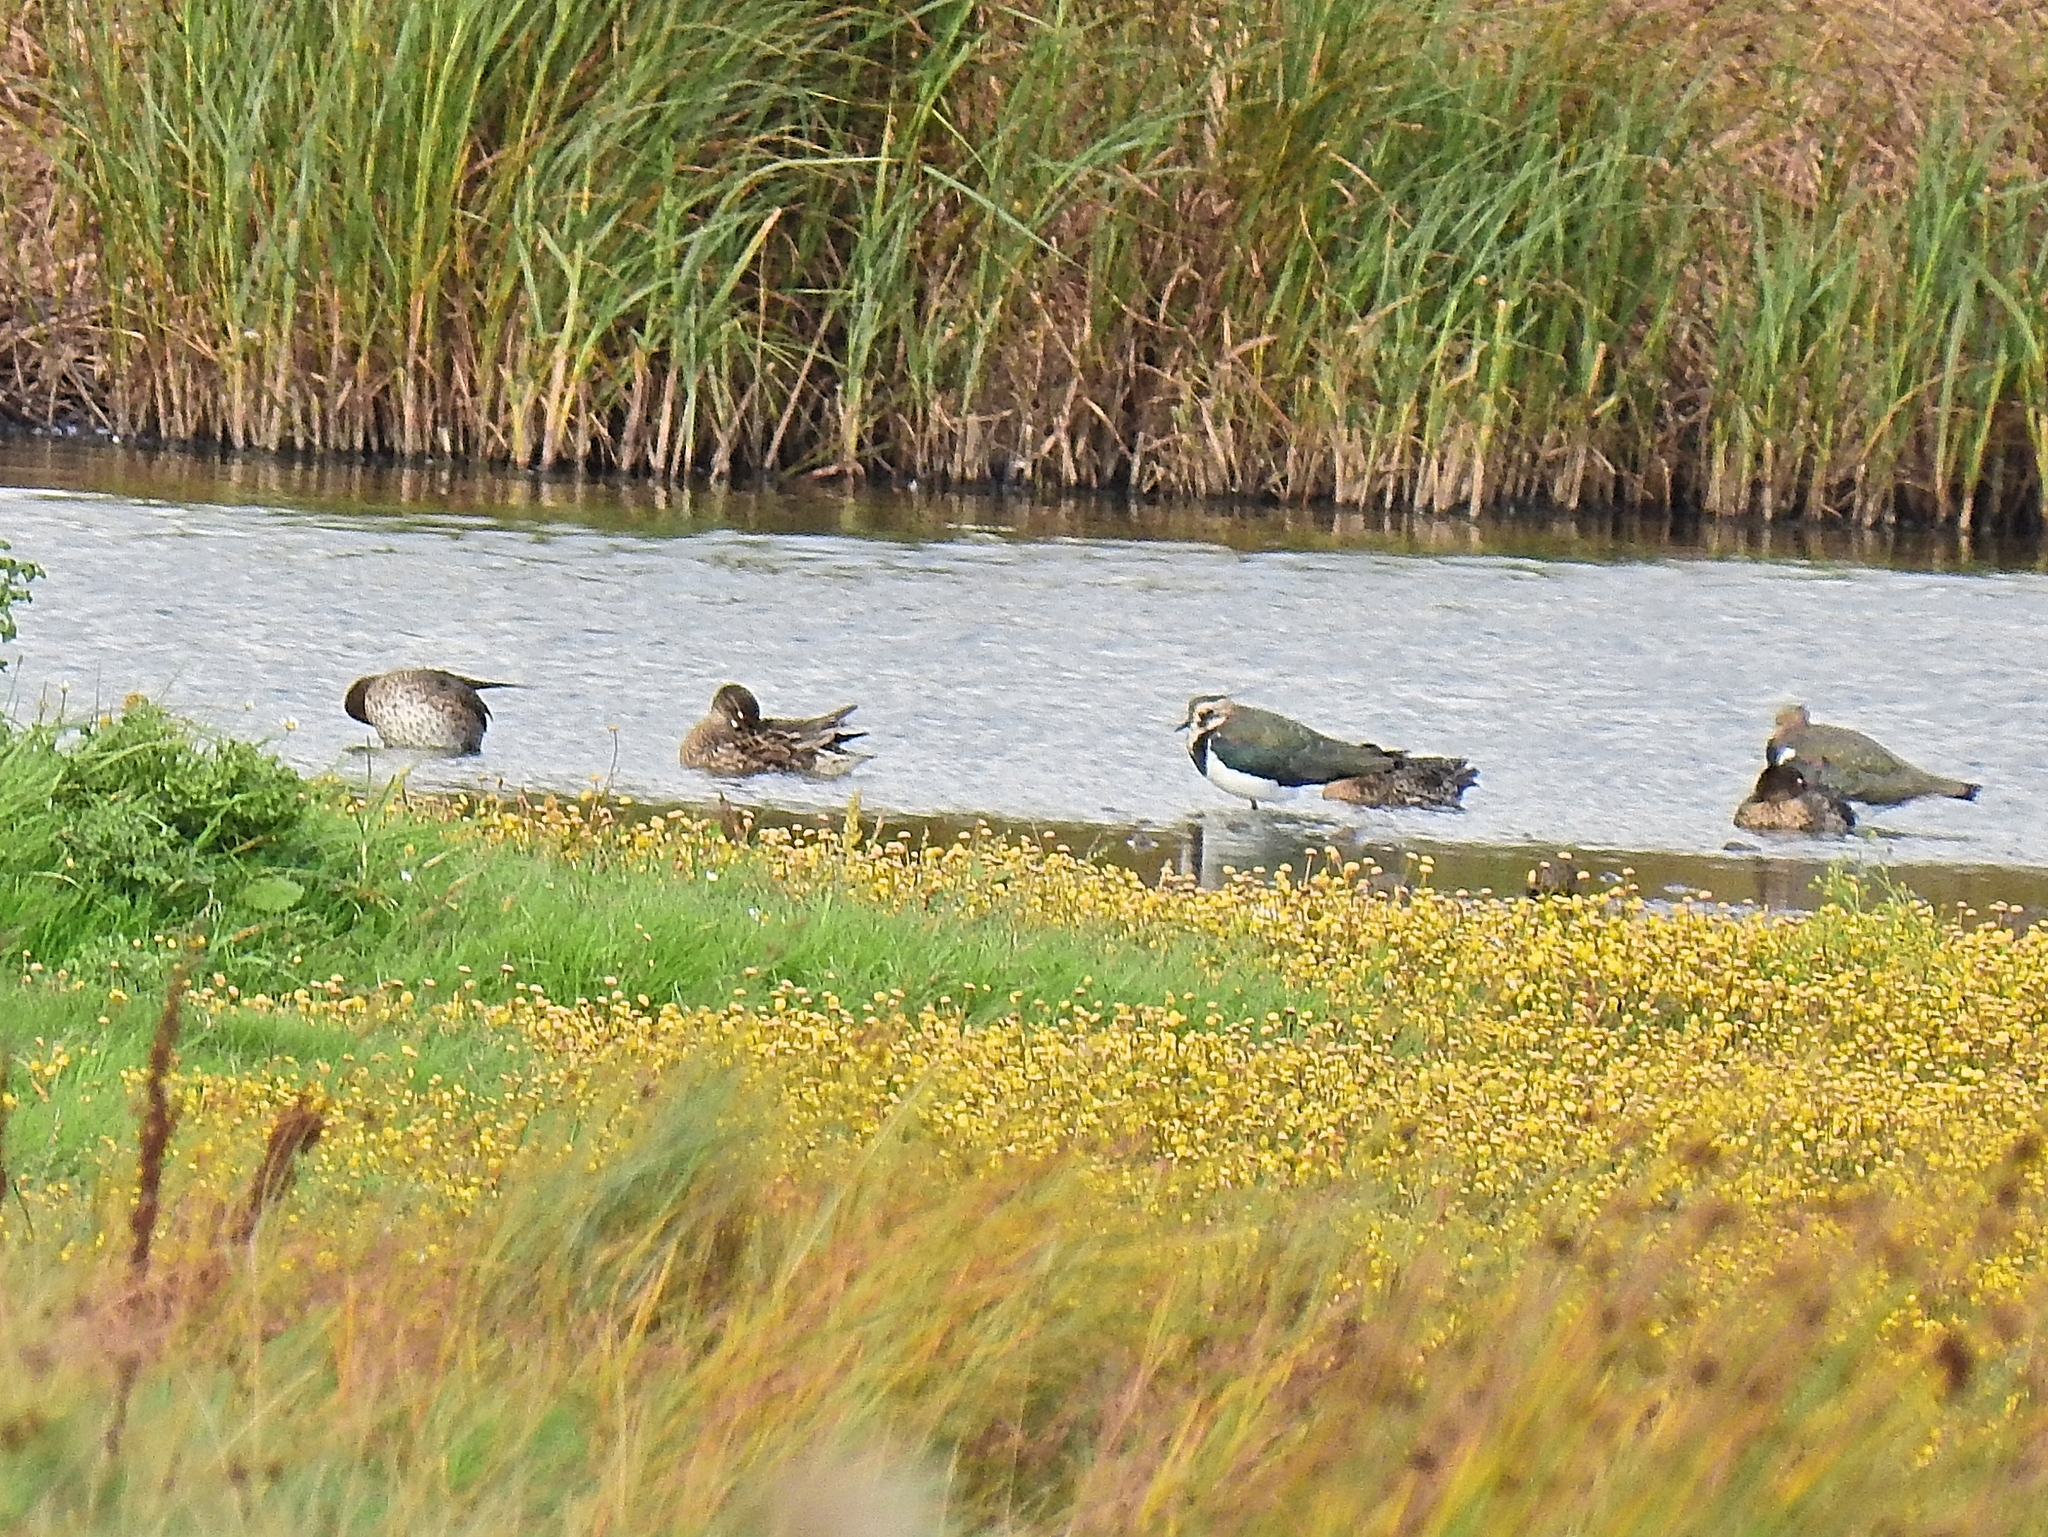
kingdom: Animalia
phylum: Chordata
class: Aves
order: Anseriformes
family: Anatidae
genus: Anas
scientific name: Anas crecca
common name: Eurasian teal
